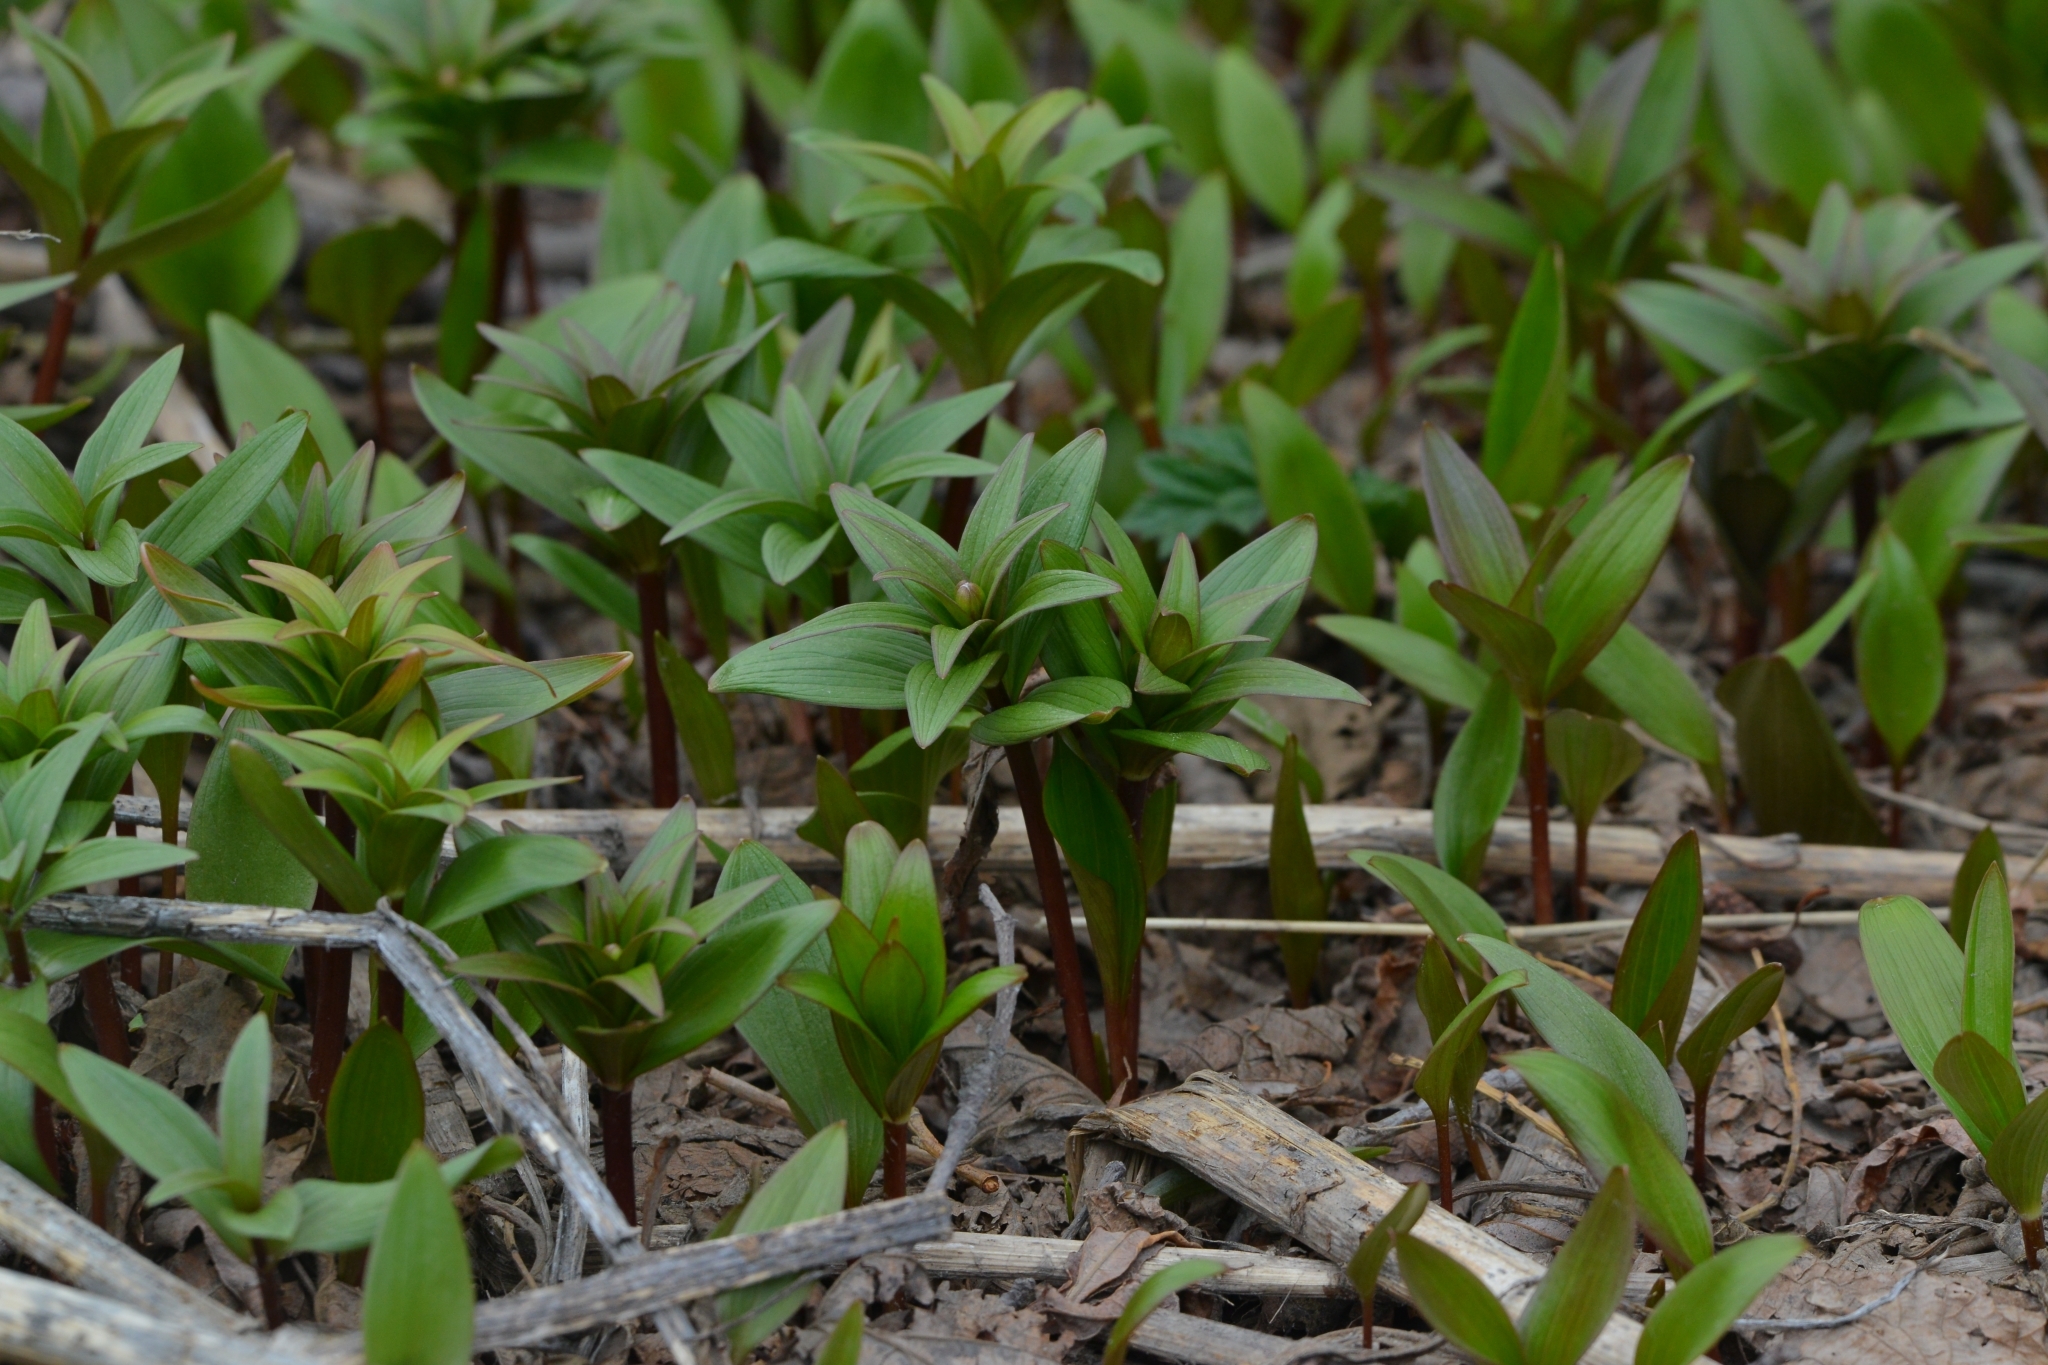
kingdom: Plantae
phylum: Tracheophyta
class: Liliopsida
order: Liliales
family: Liliaceae
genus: Fritillaria
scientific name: Fritillaria camschatcensis
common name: Kamchatka fritillary
